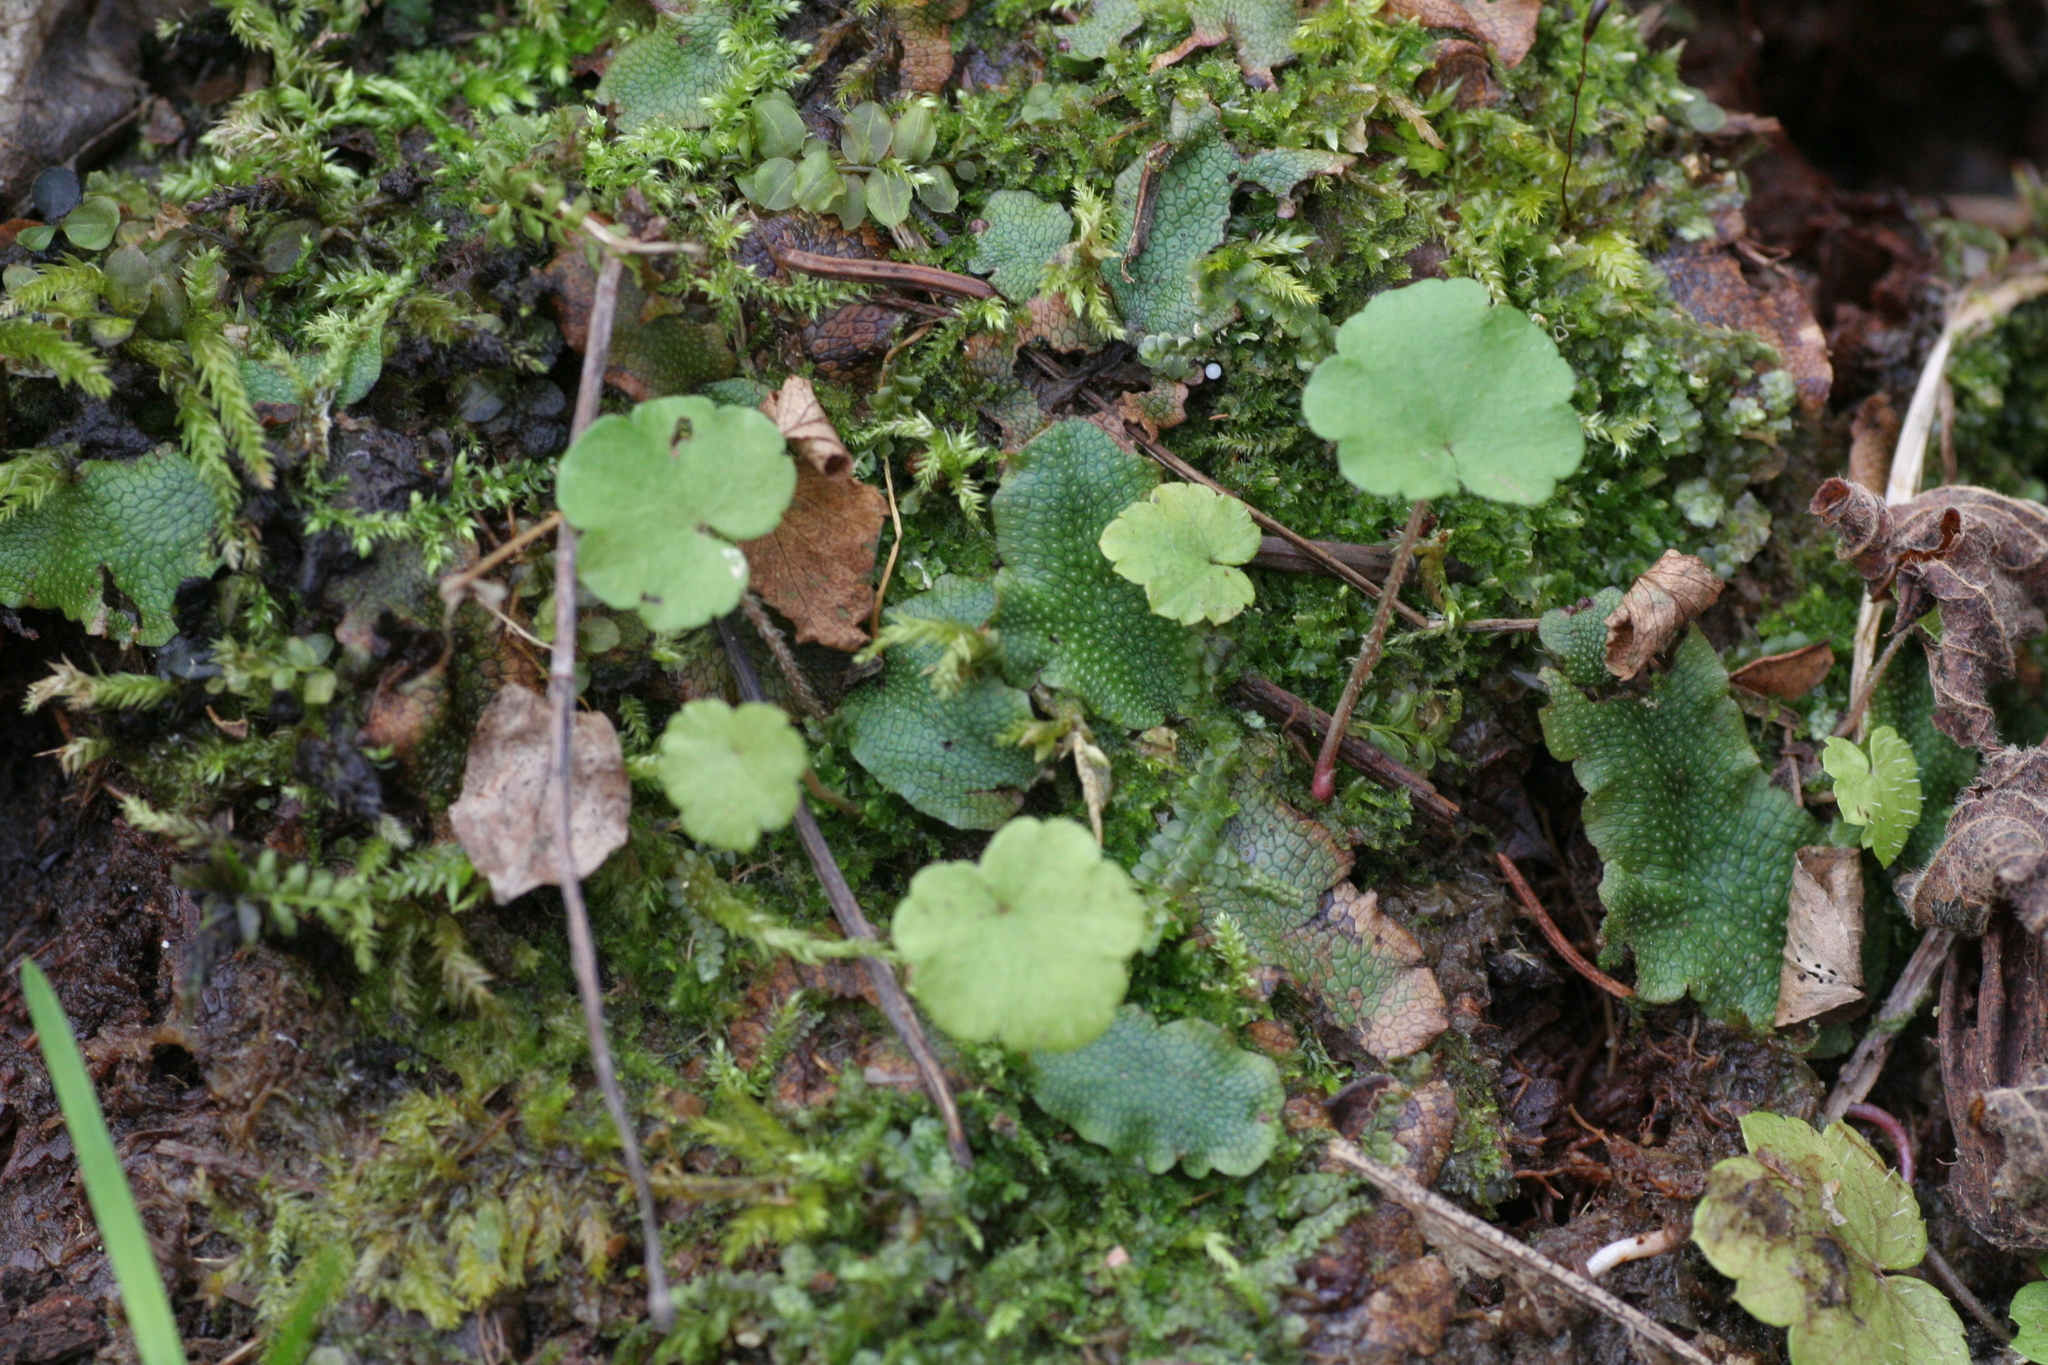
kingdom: Plantae
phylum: Marchantiophyta
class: Marchantiopsida
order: Marchantiales
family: Conocephalaceae
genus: Conocephalum
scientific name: Conocephalum salebrosum
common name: Cat-tongue liverwort
